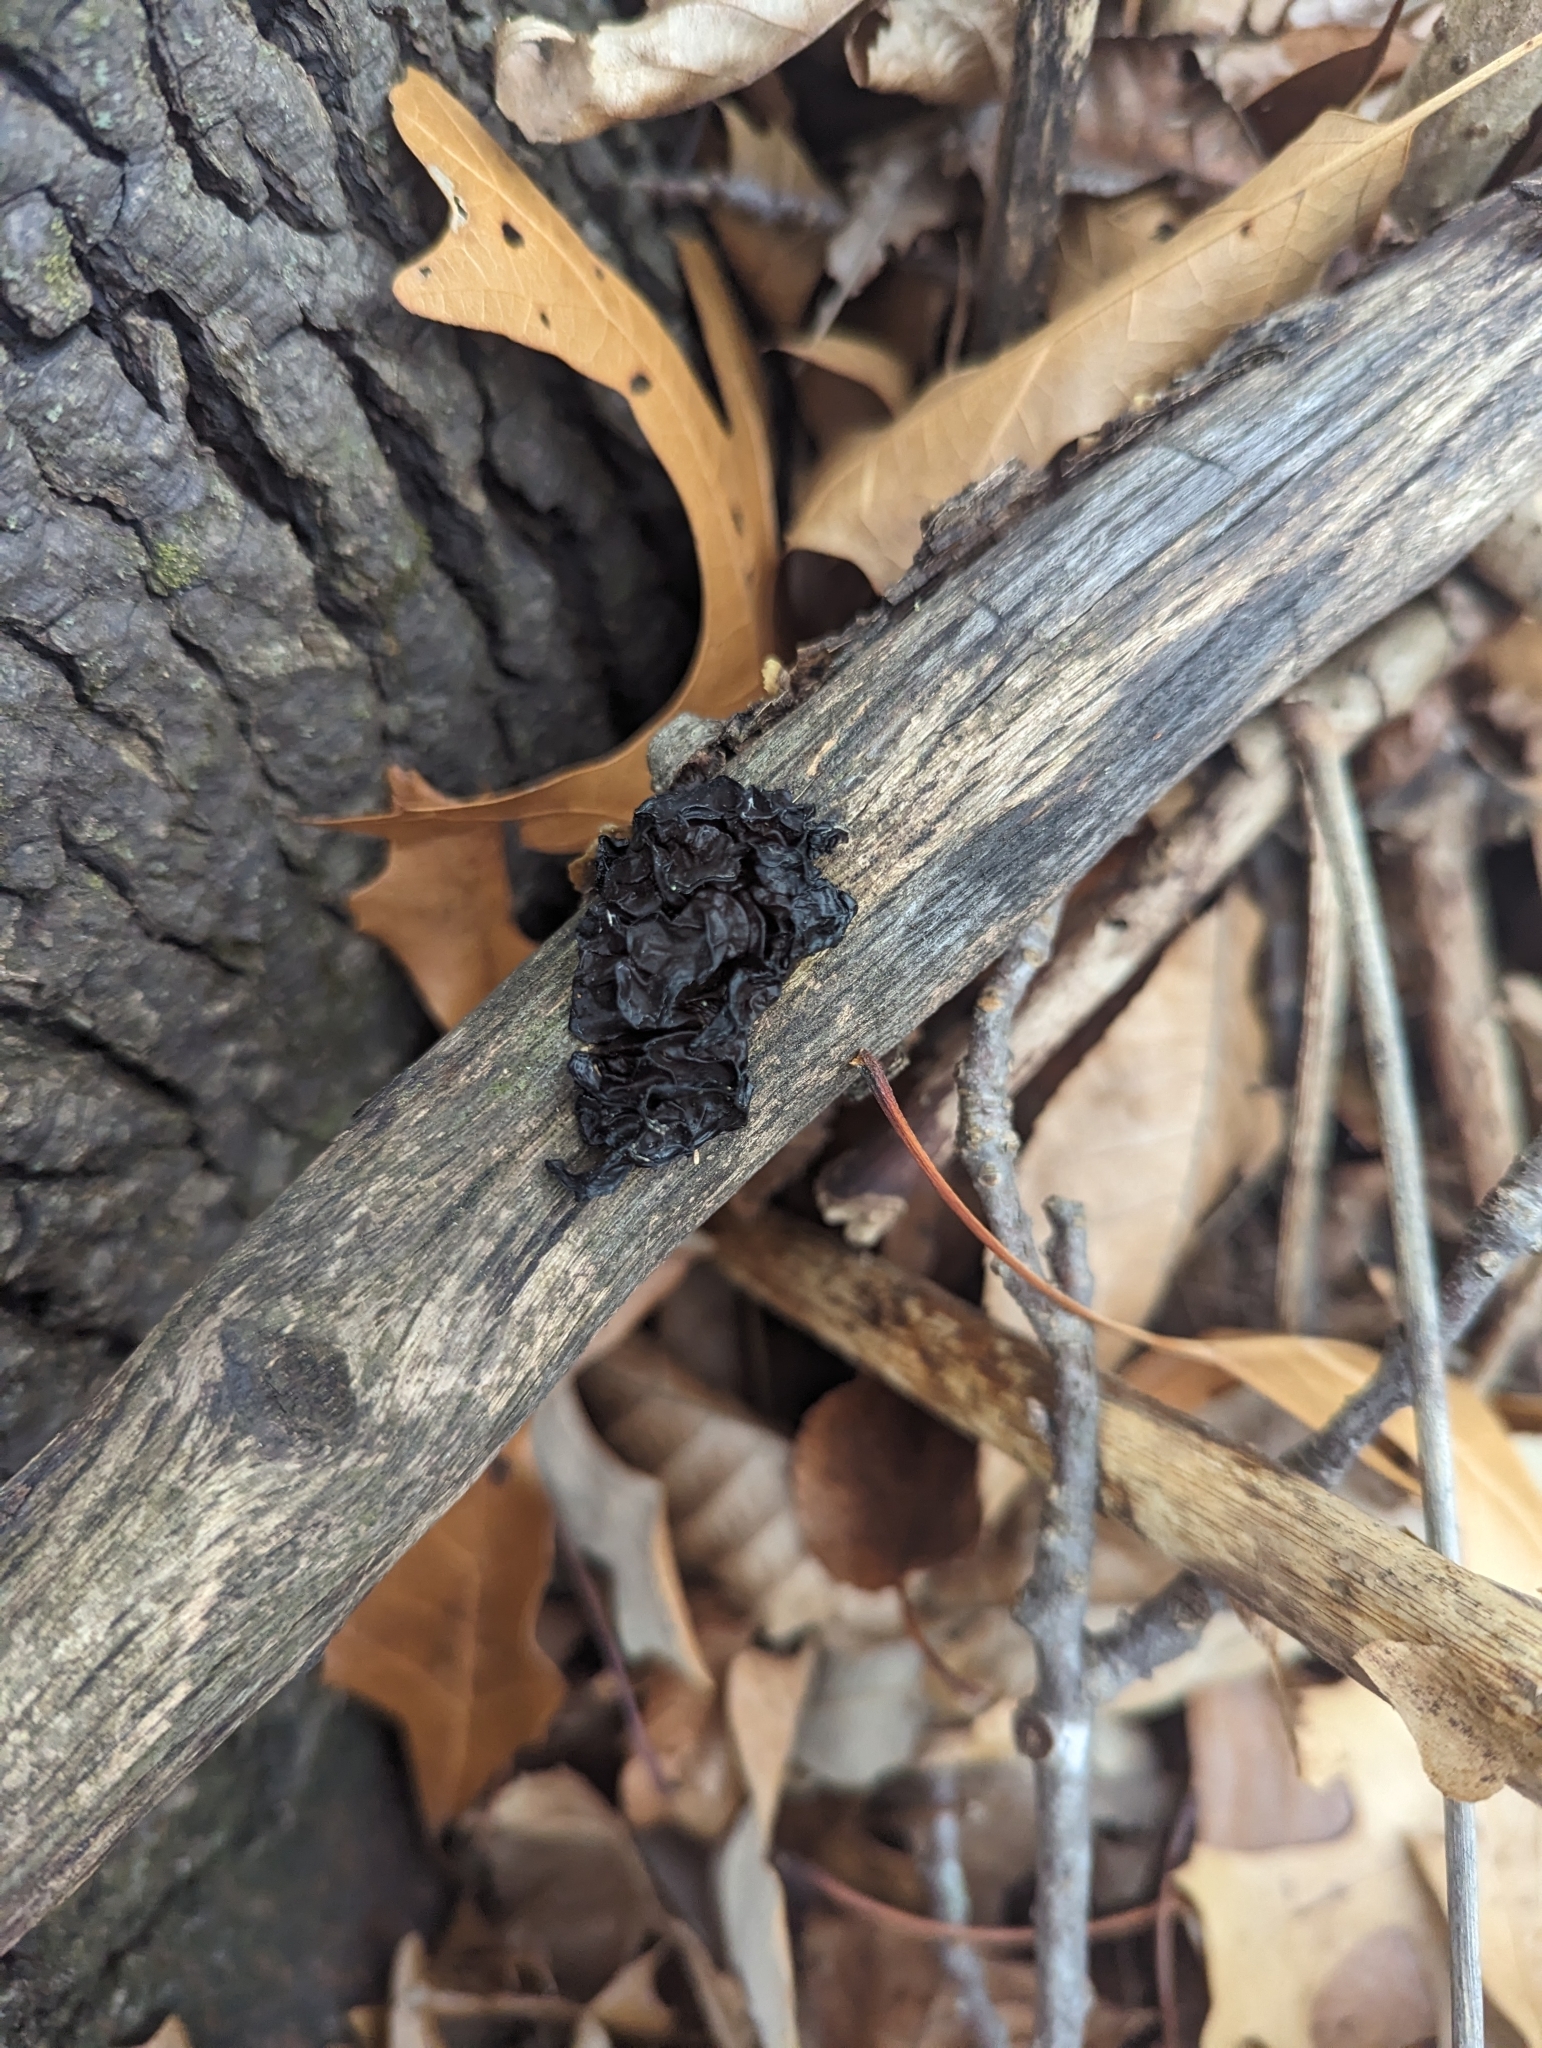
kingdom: Fungi
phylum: Basidiomycota
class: Agaricomycetes
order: Auriculariales
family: Auriculariaceae
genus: Exidia
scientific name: Exidia nigricans
